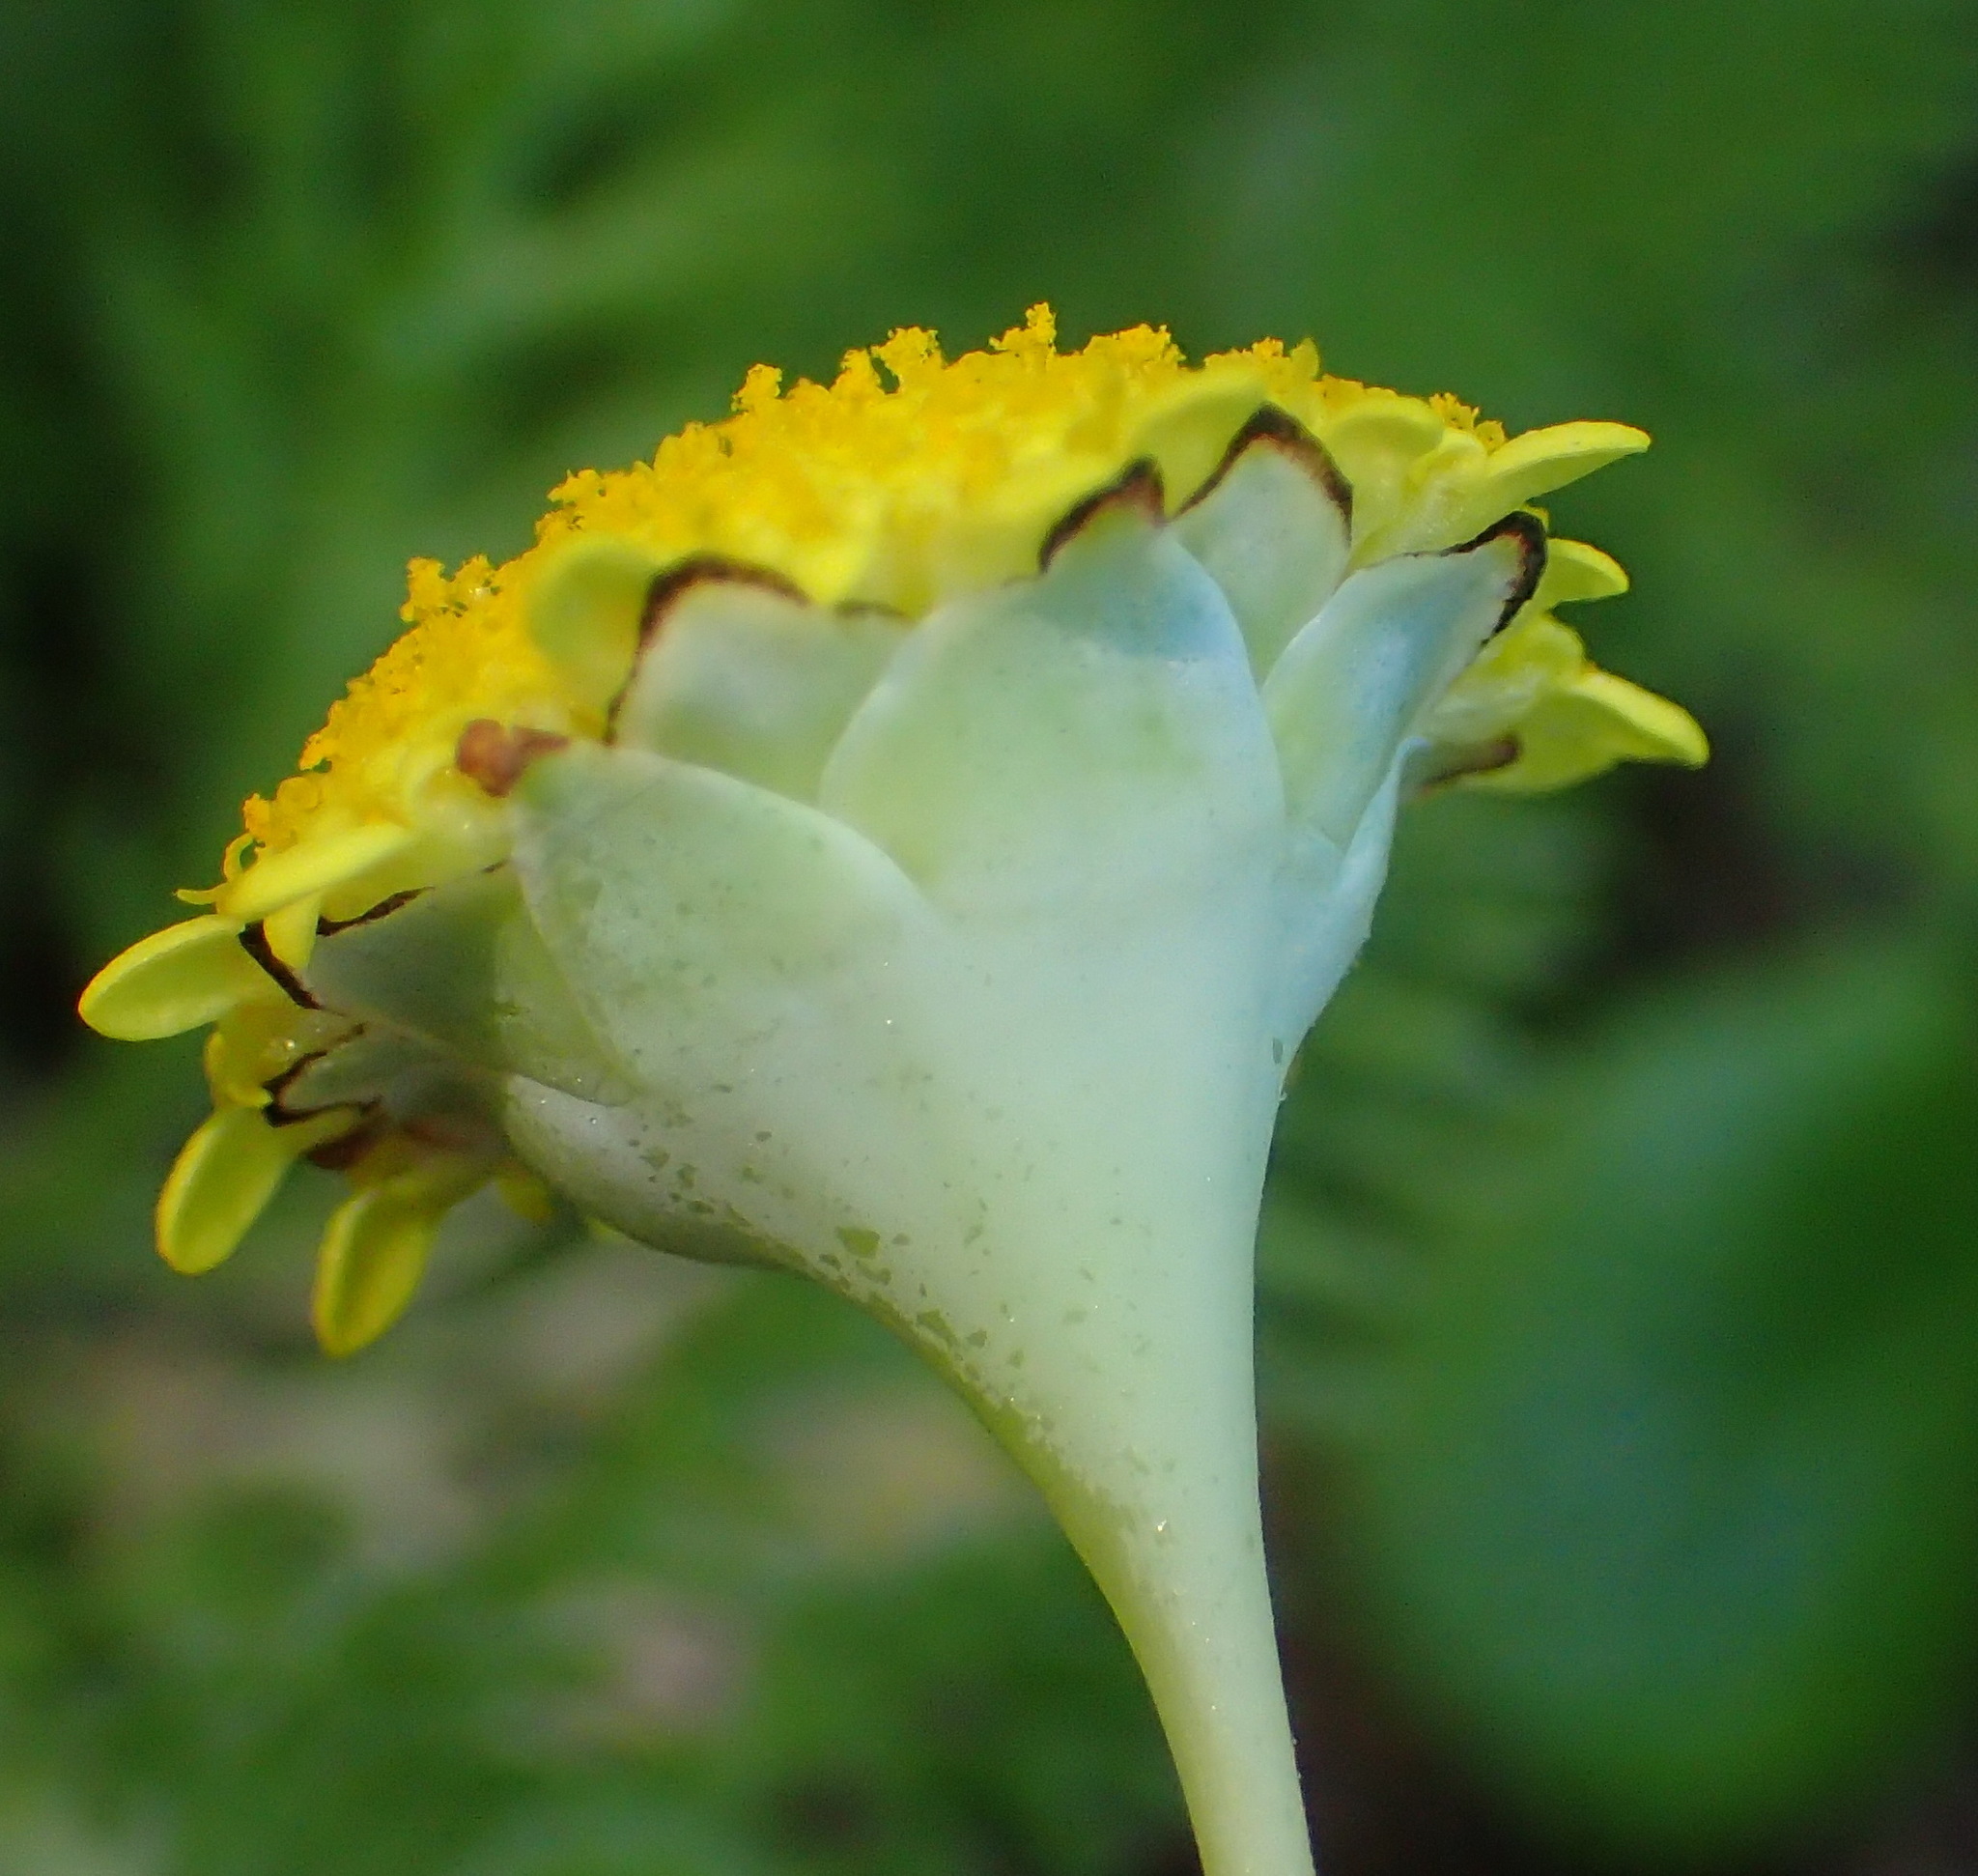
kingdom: Plantae
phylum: Tracheophyta
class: Magnoliopsida
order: Asterales
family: Asteraceae
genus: Cotula
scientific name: Cotula discolor
